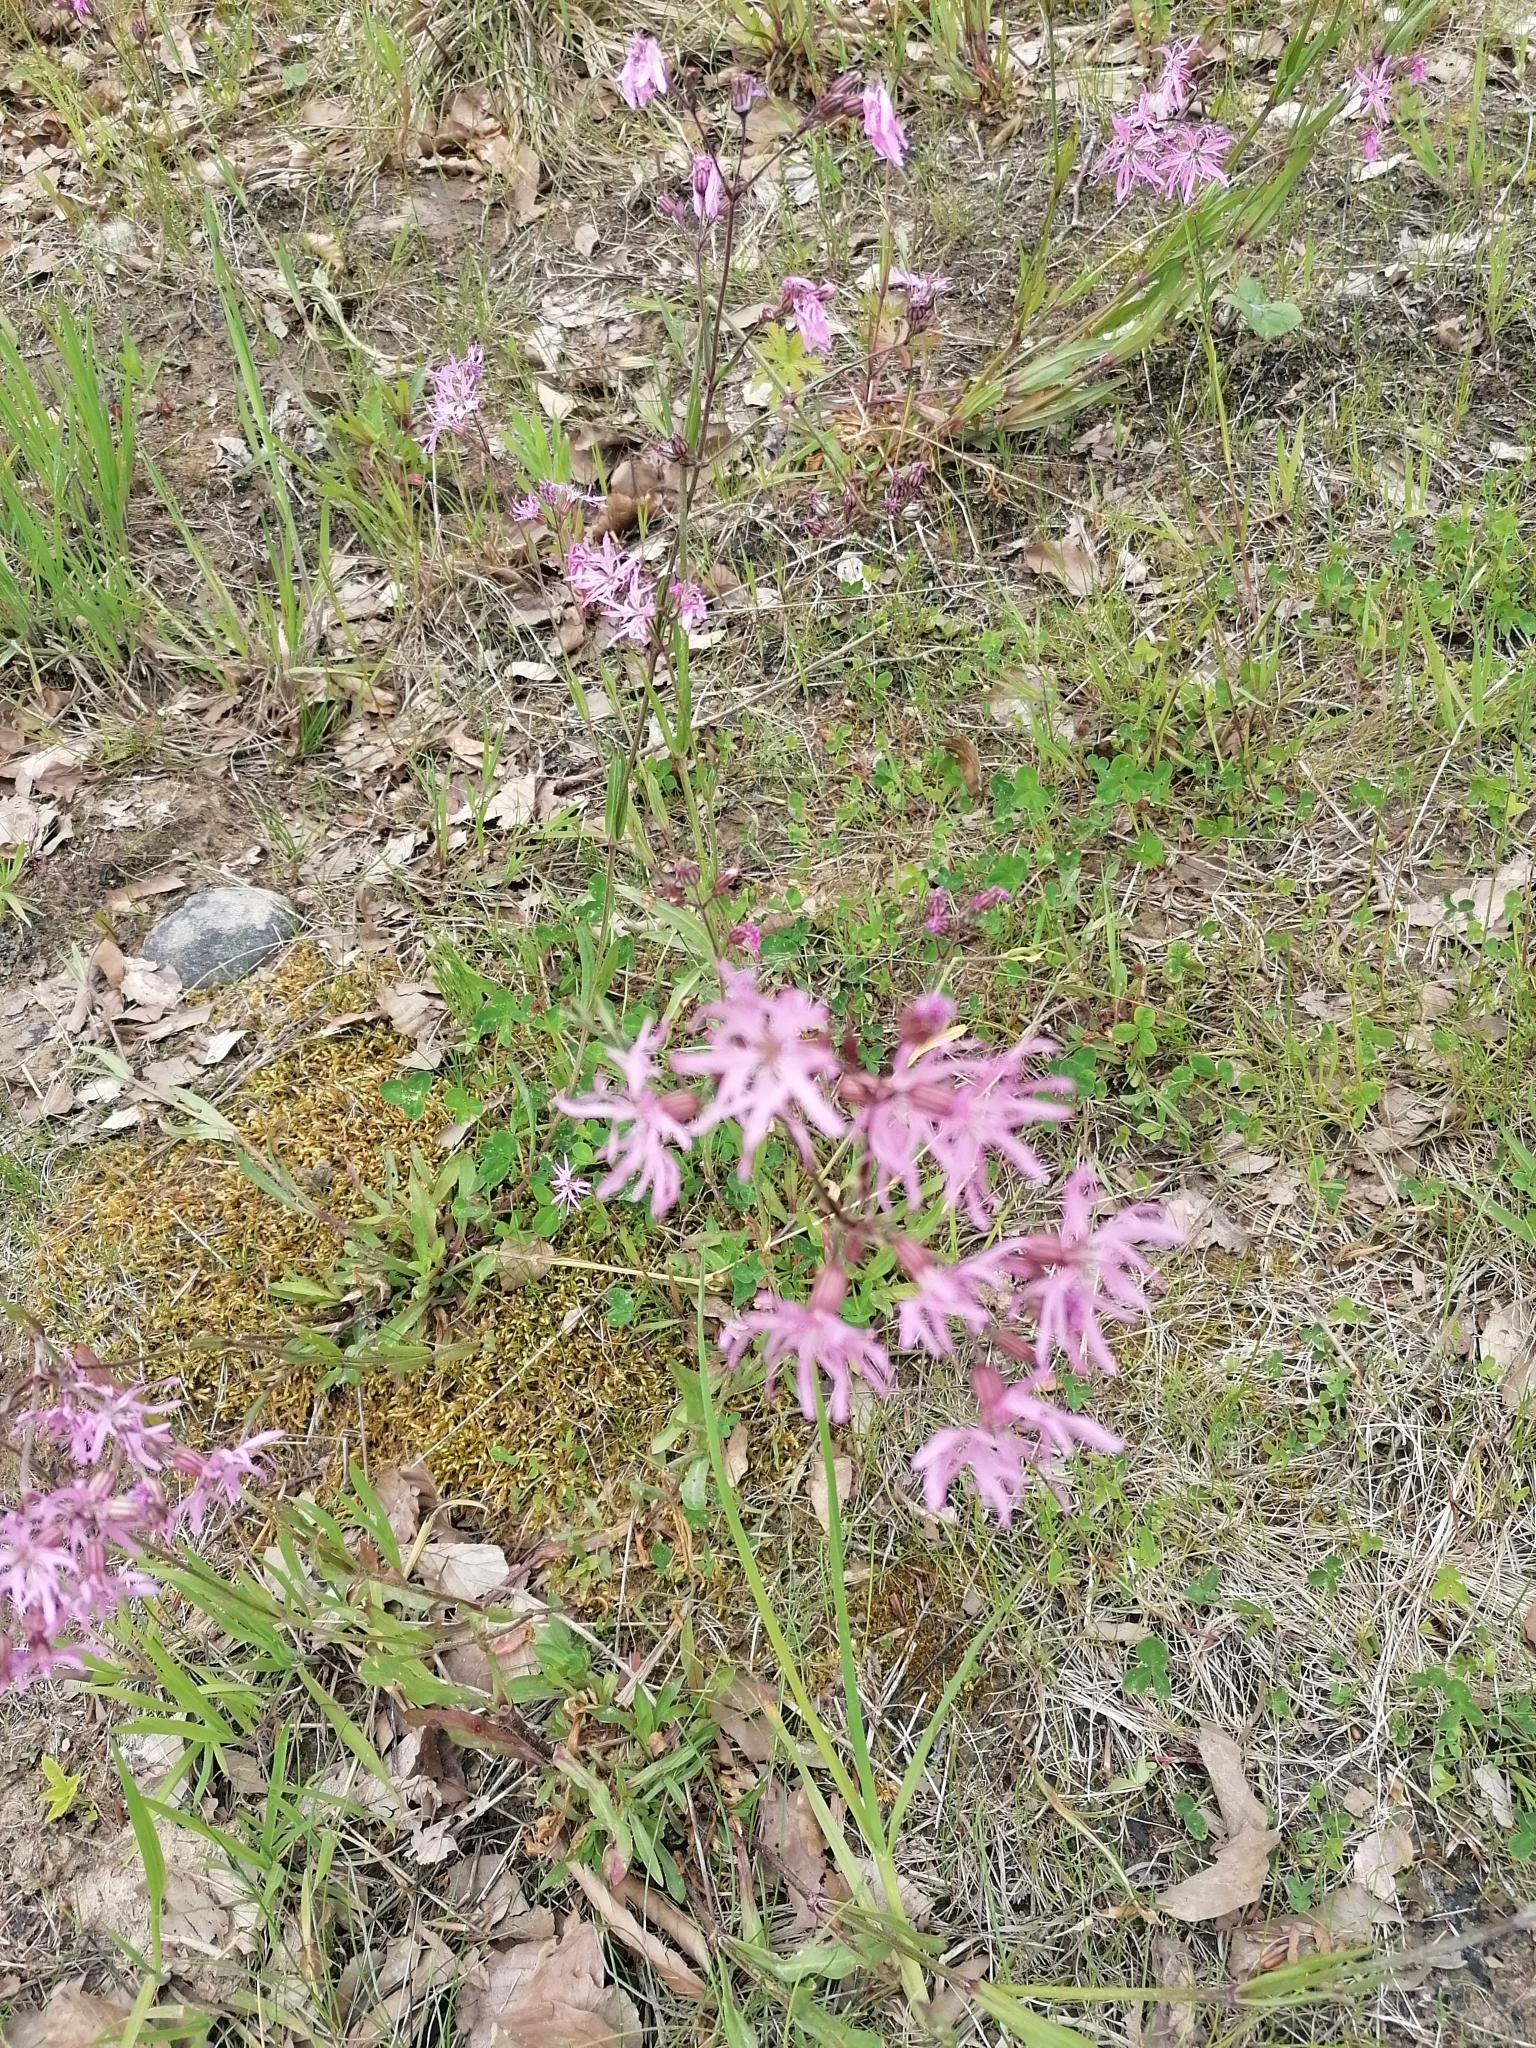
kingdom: Plantae
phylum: Tracheophyta
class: Magnoliopsida
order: Caryophyllales
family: Caryophyllaceae
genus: Silene
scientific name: Silene flos-cuculi
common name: Ragged-robin
